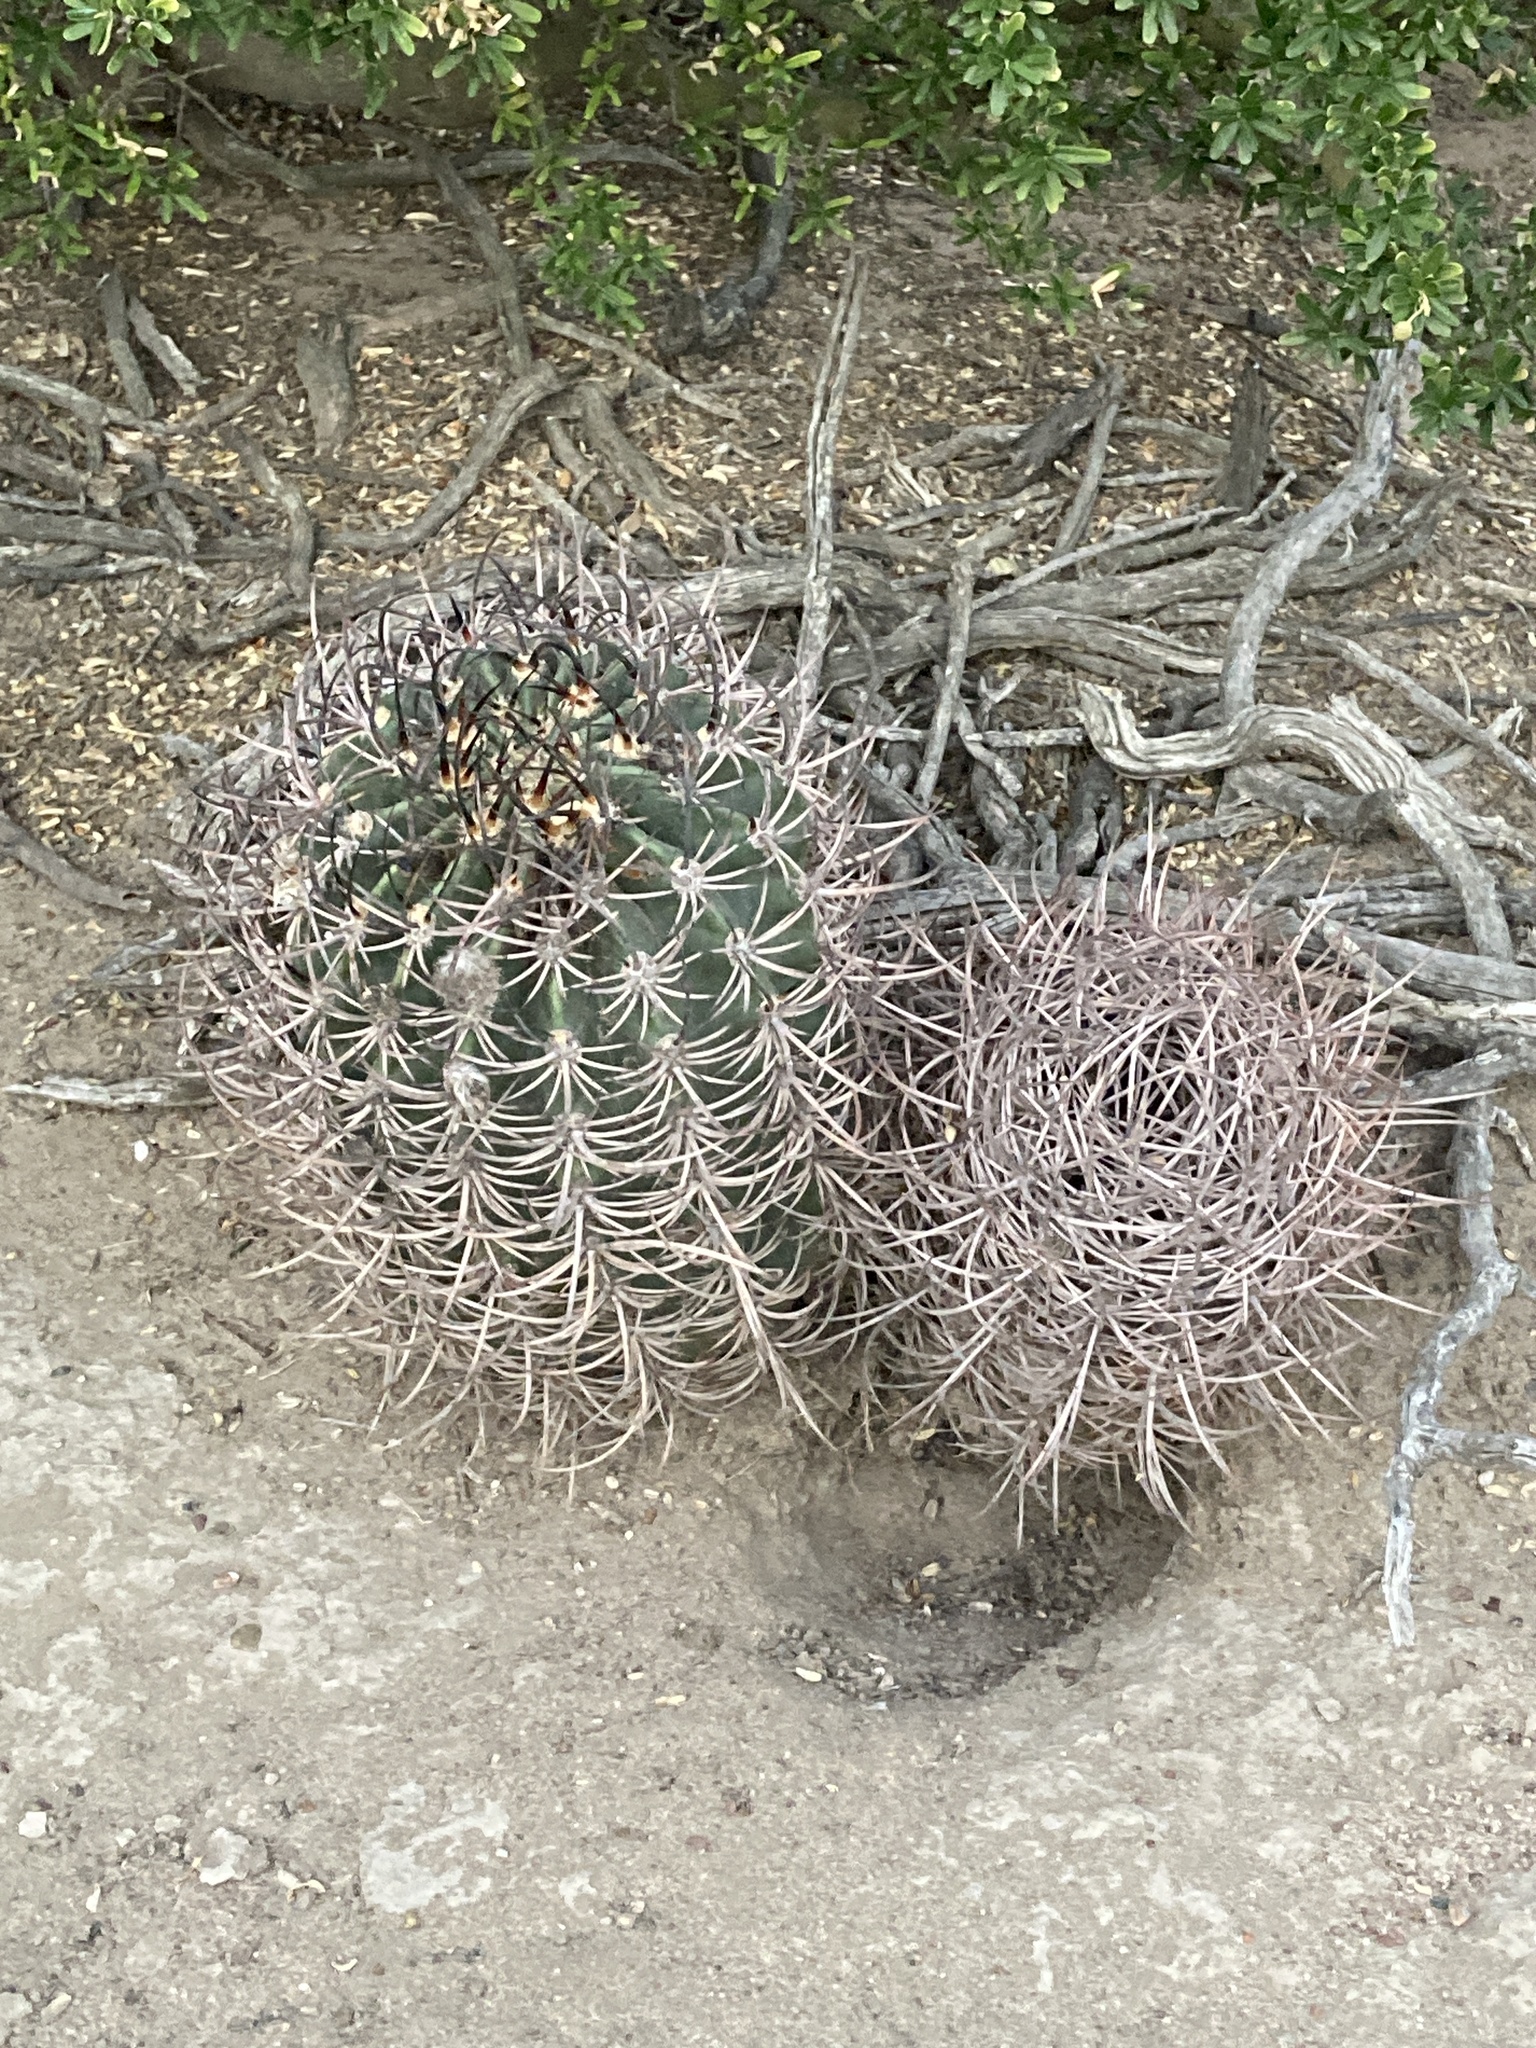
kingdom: Plantae
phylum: Tracheophyta
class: Magnoliopsida
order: Caryophyllales
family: Cactaceae
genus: Acanthocalycium
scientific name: Acanthocalycium leucanthum
